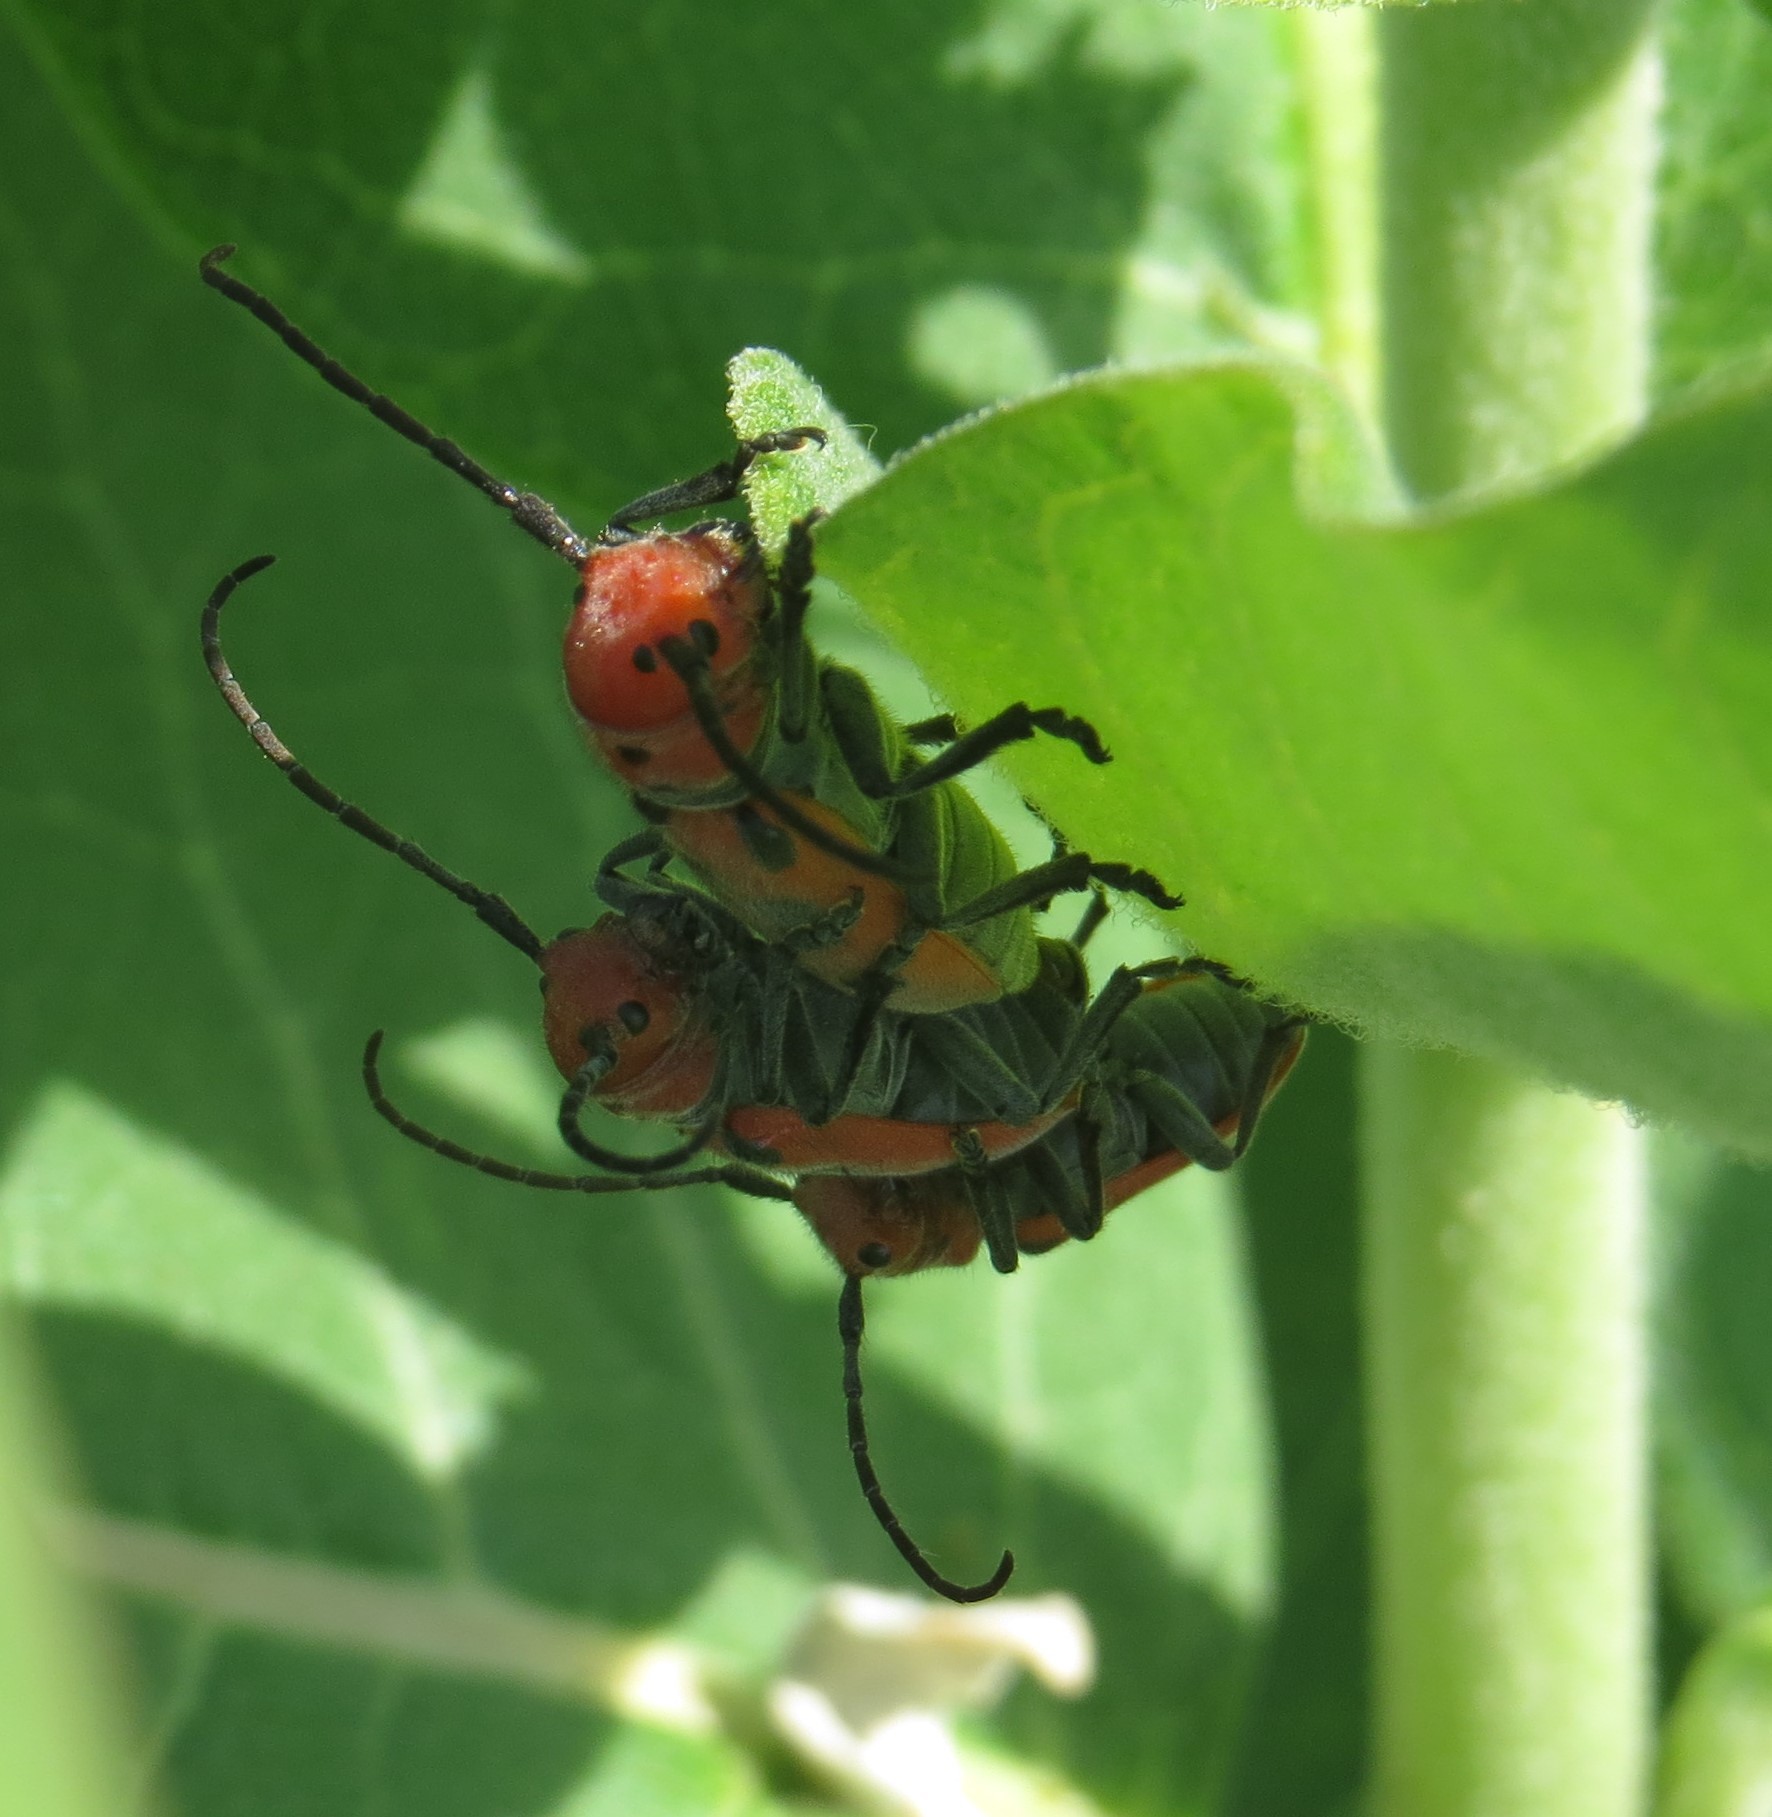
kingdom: Animalia
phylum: Arthropoda
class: Insecta
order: Coleoptera
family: Cerambycidae
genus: Tetraopes
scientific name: Tetraopes tetrophthalmus
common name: Red milkweed beetle
